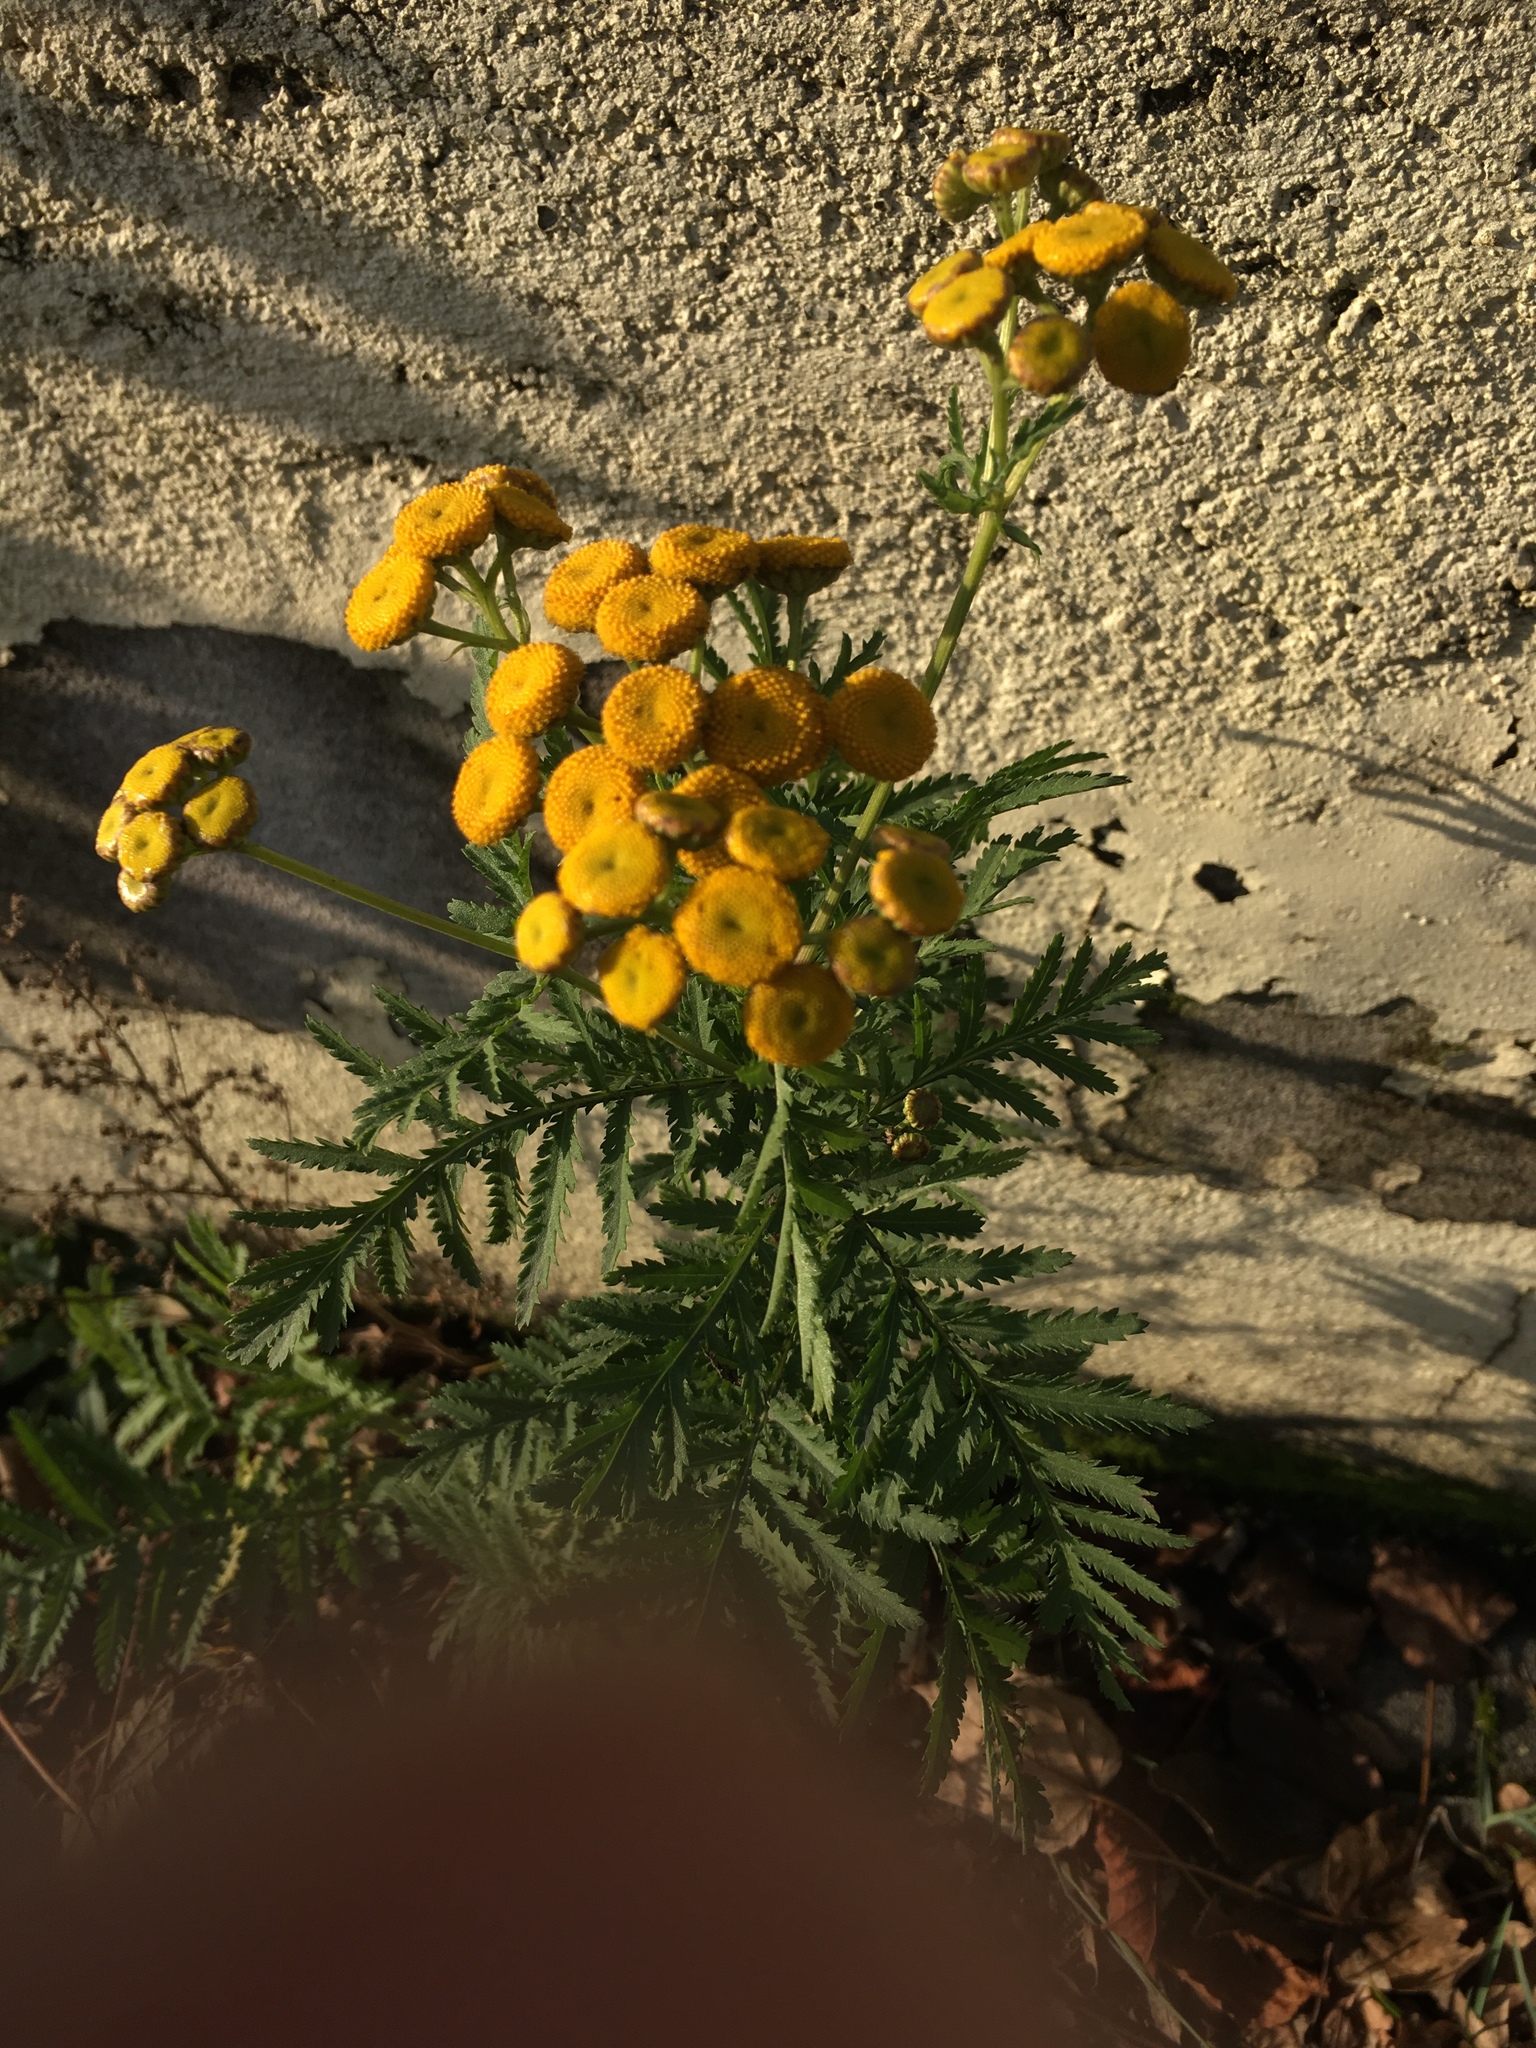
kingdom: Plantae
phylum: Tracheophyta
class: Magnoliopsida
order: Asterales
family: Asteraceae
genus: Tanacetum
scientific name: Tanacetum vulgare
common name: Common tansy
